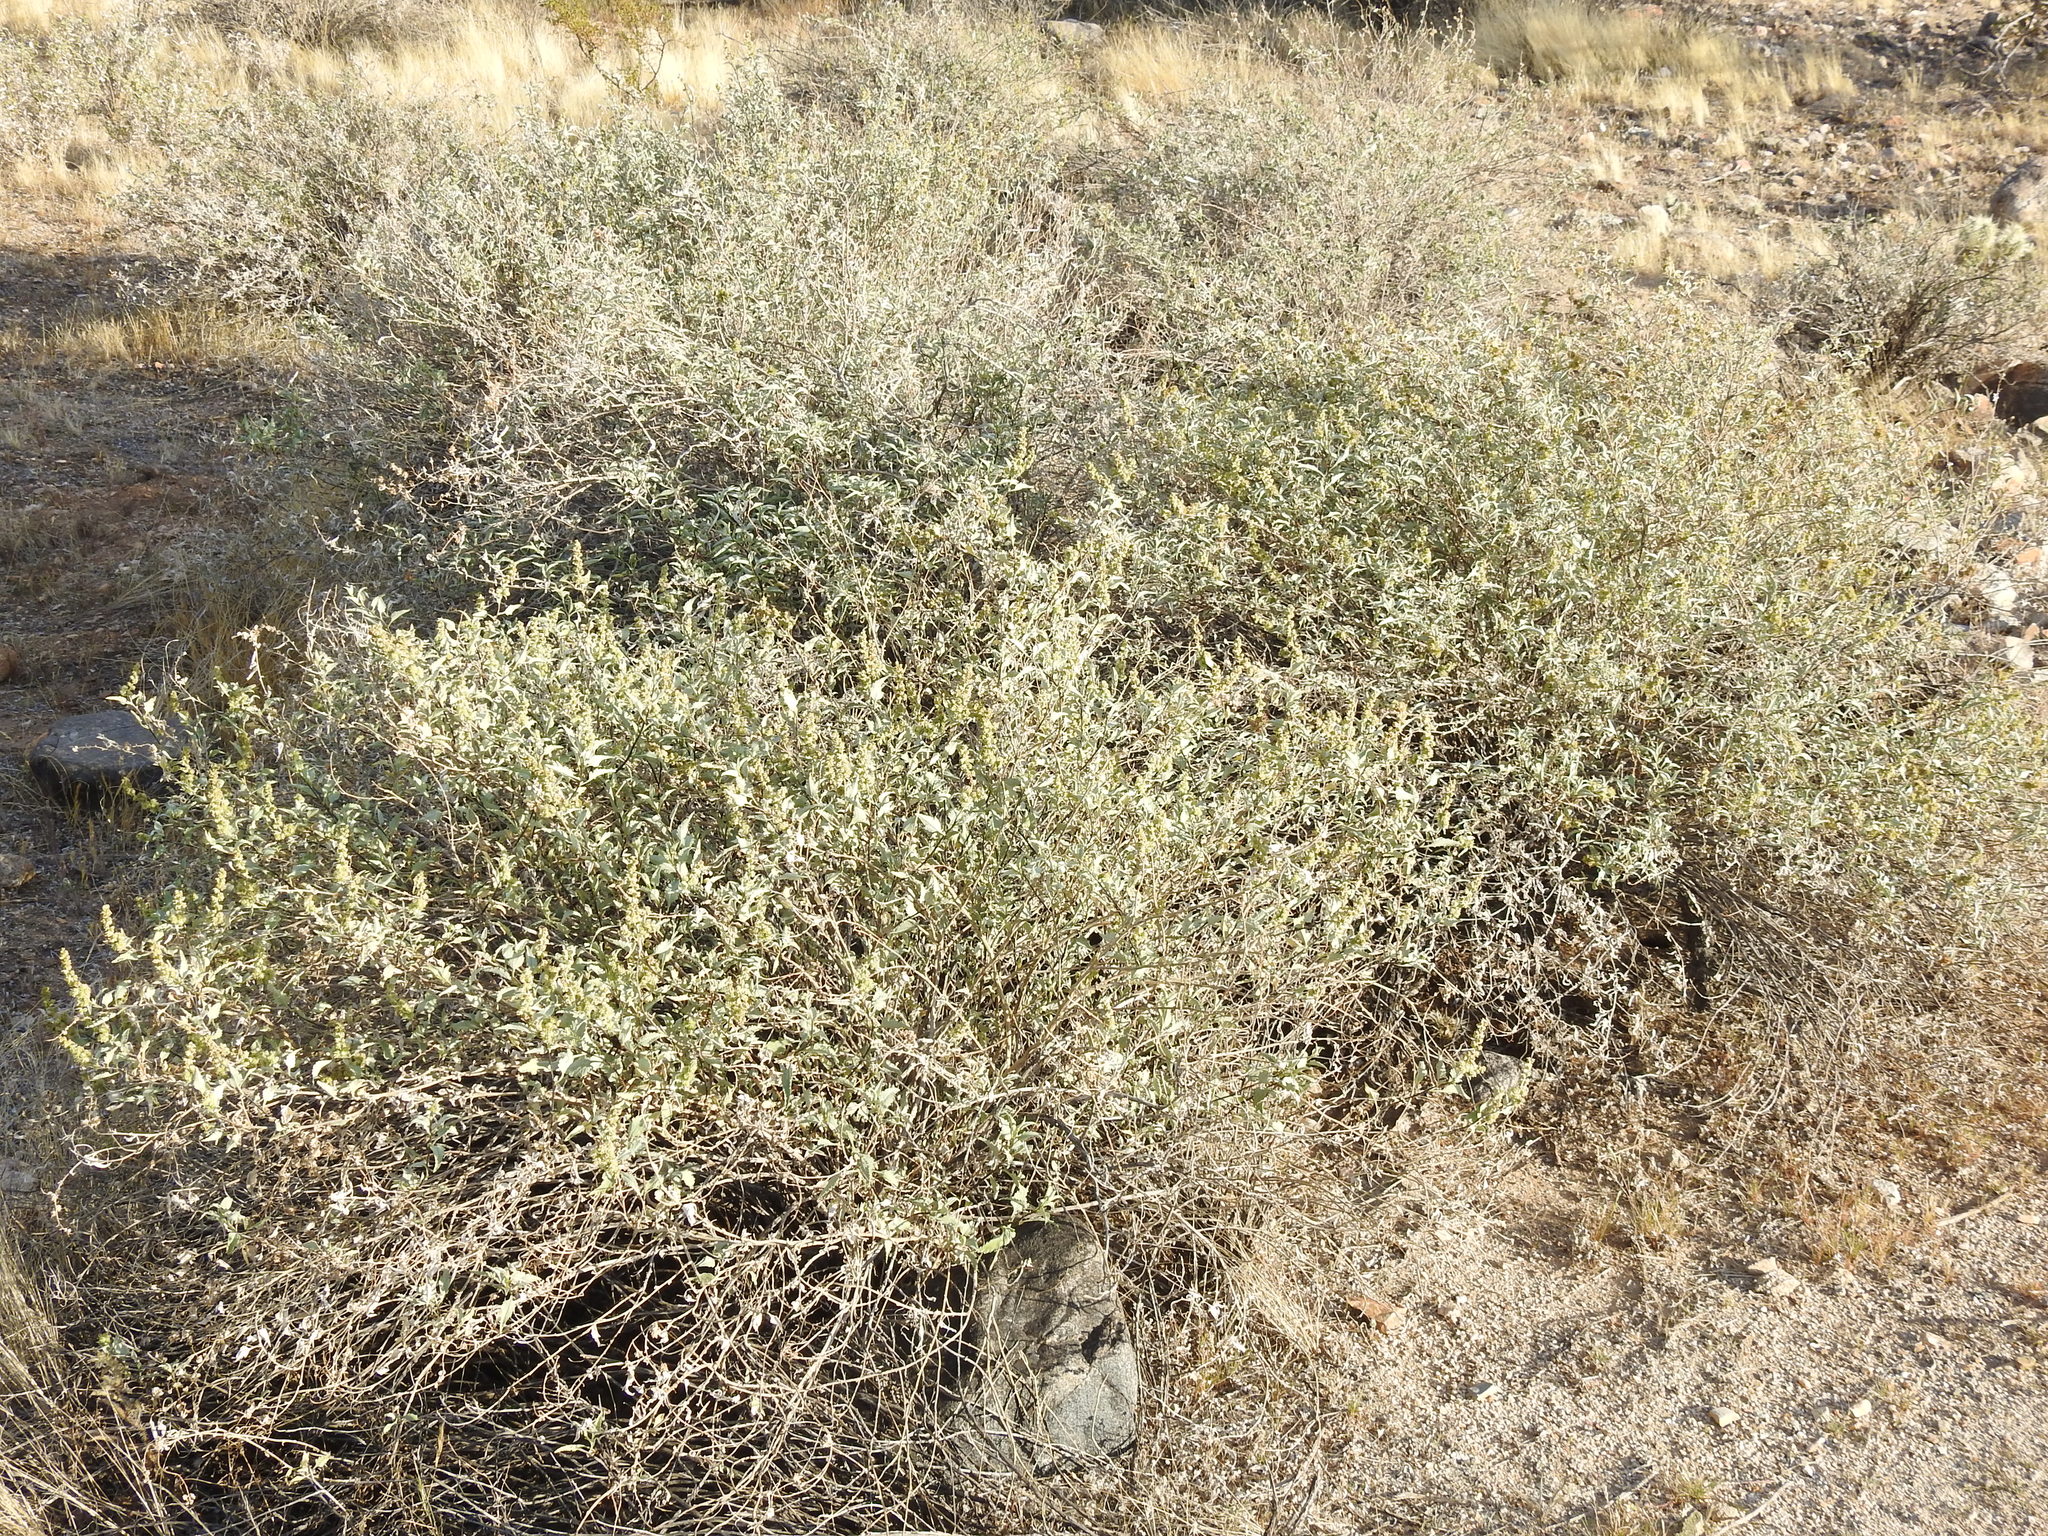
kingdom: Plantae
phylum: Tracheophyta
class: Magnoliopsida
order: Asterales
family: Asteraceae
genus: Ambrosia
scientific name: Ambrosia deltoidea
